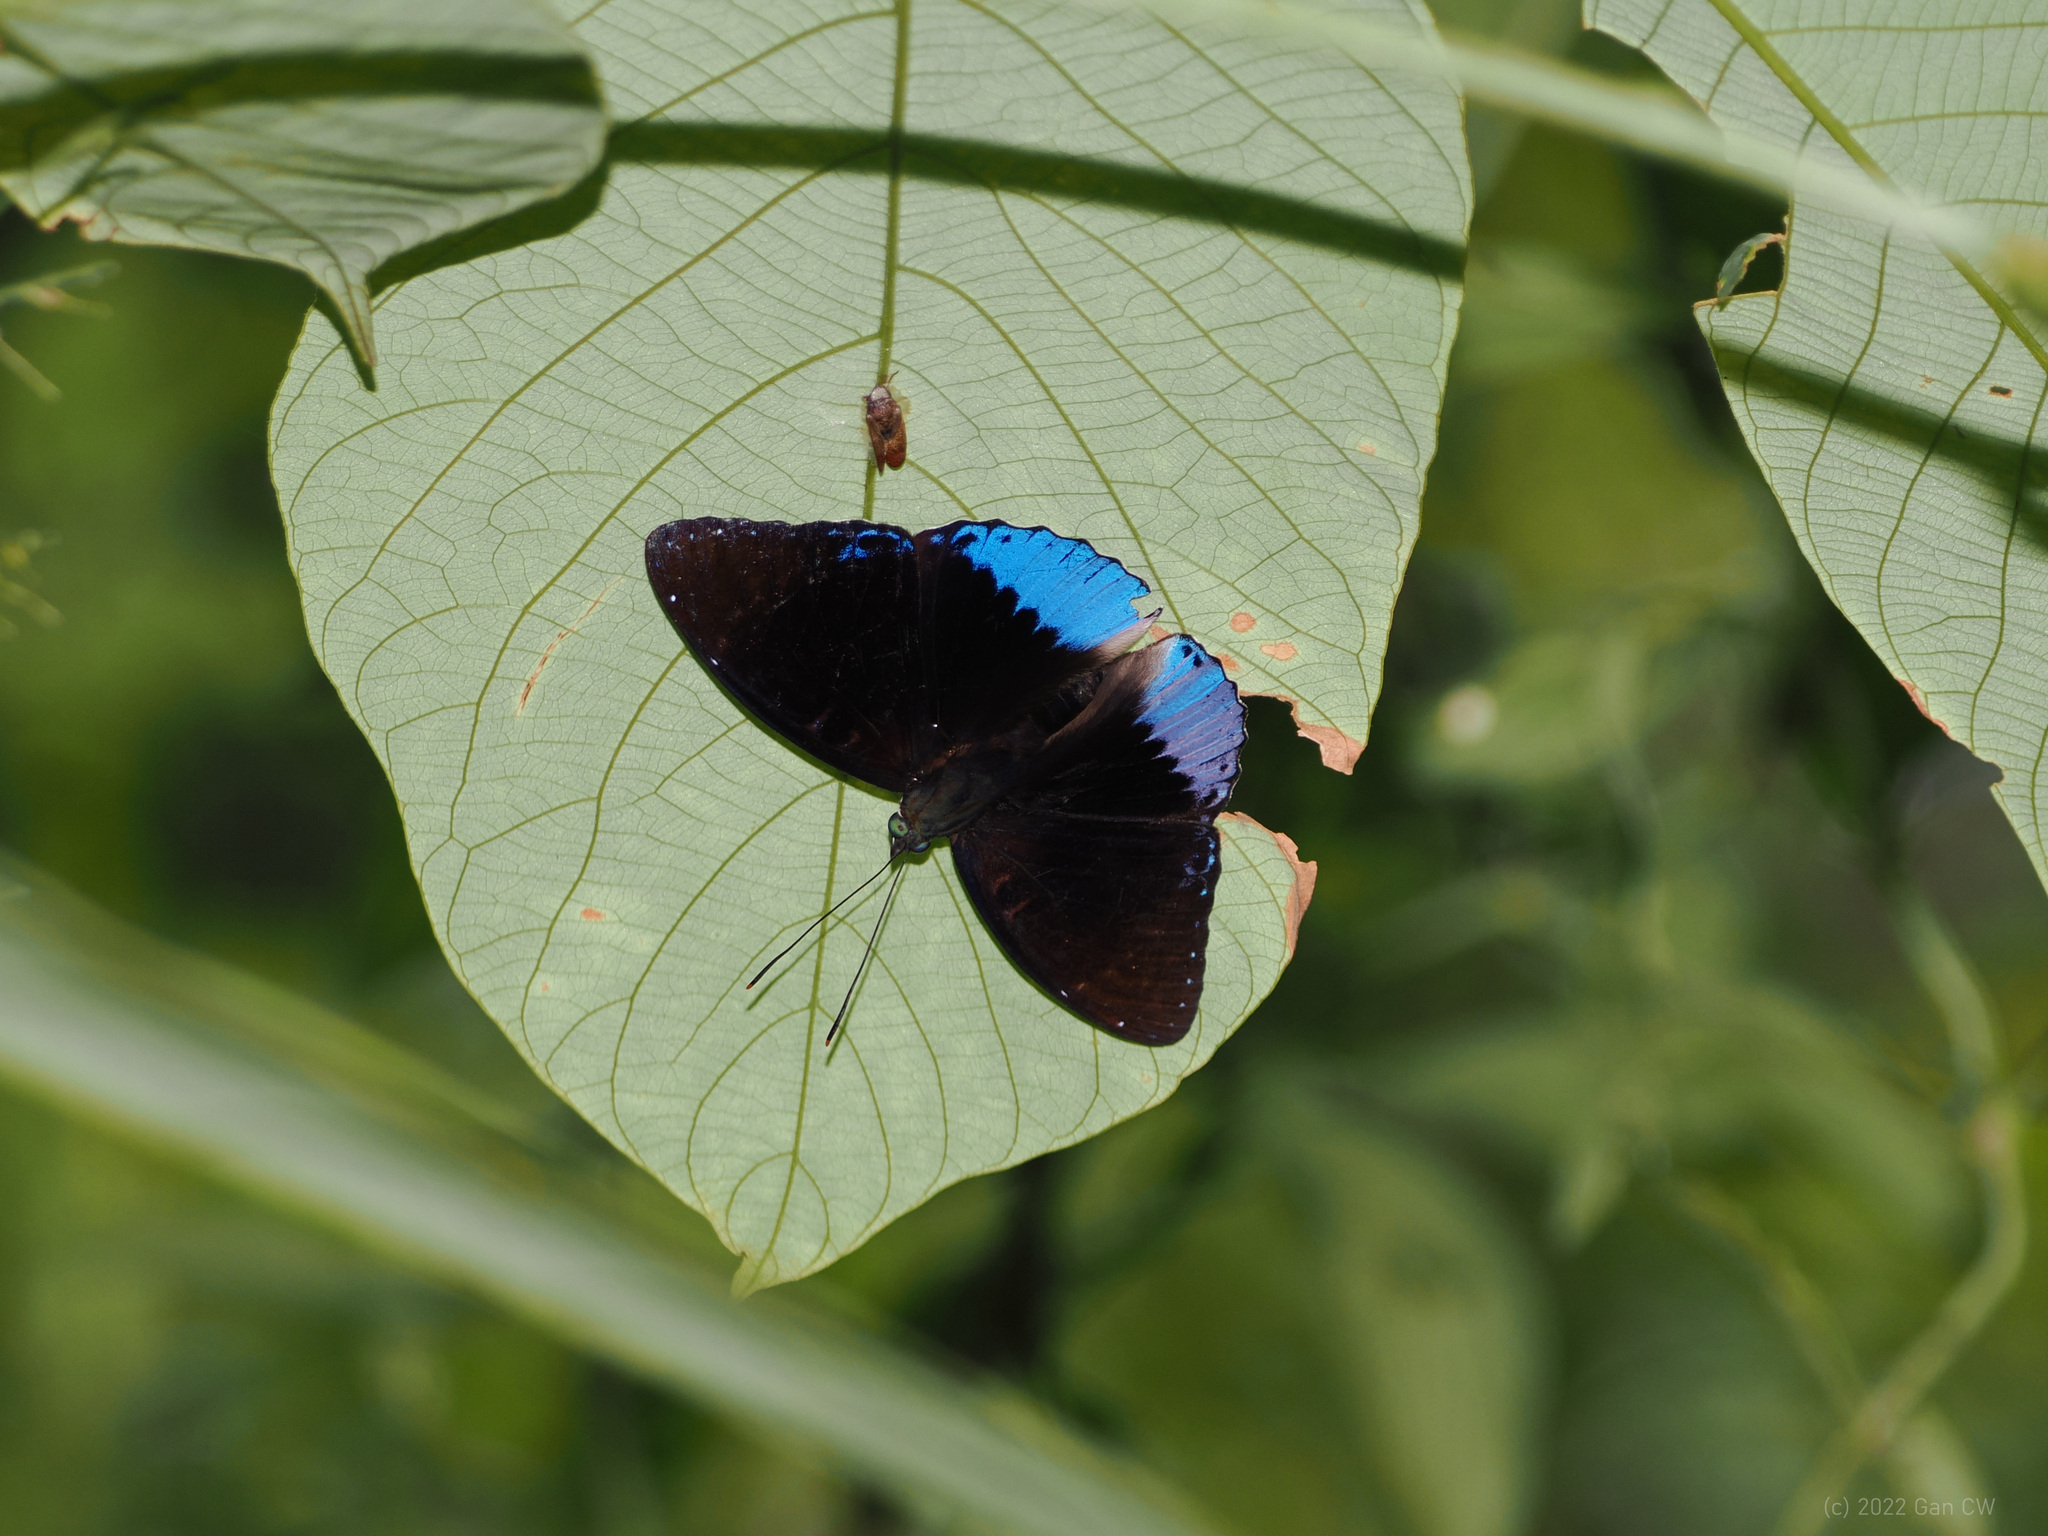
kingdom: Animalia
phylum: Arthropoda
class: Insecta
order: Lepidoptera
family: Nymphalidae
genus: Stibochiona
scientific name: Stibochiona coresia
